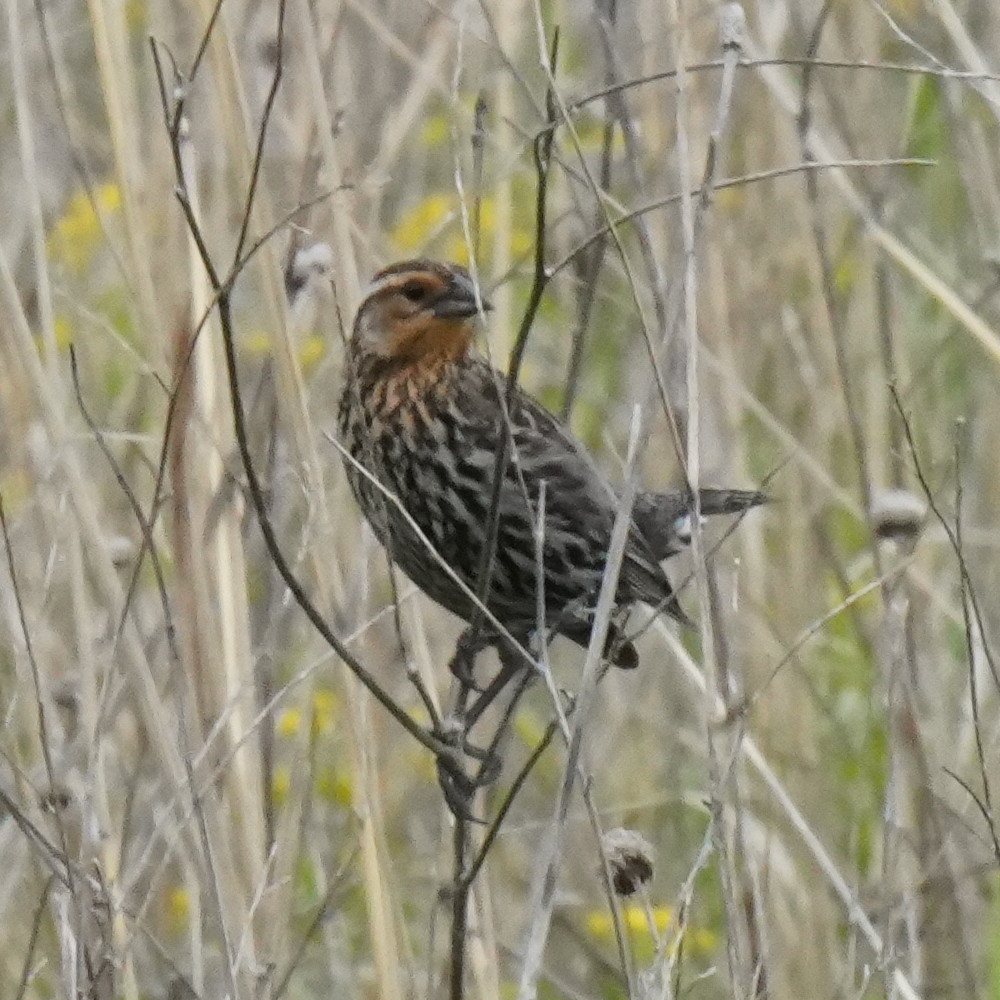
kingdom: Animalia
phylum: Chordata
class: Aves
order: Passeriformes
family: Icteridae
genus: Agelaius
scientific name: Agelaius phoeniceus
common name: Red-winged blackbird
